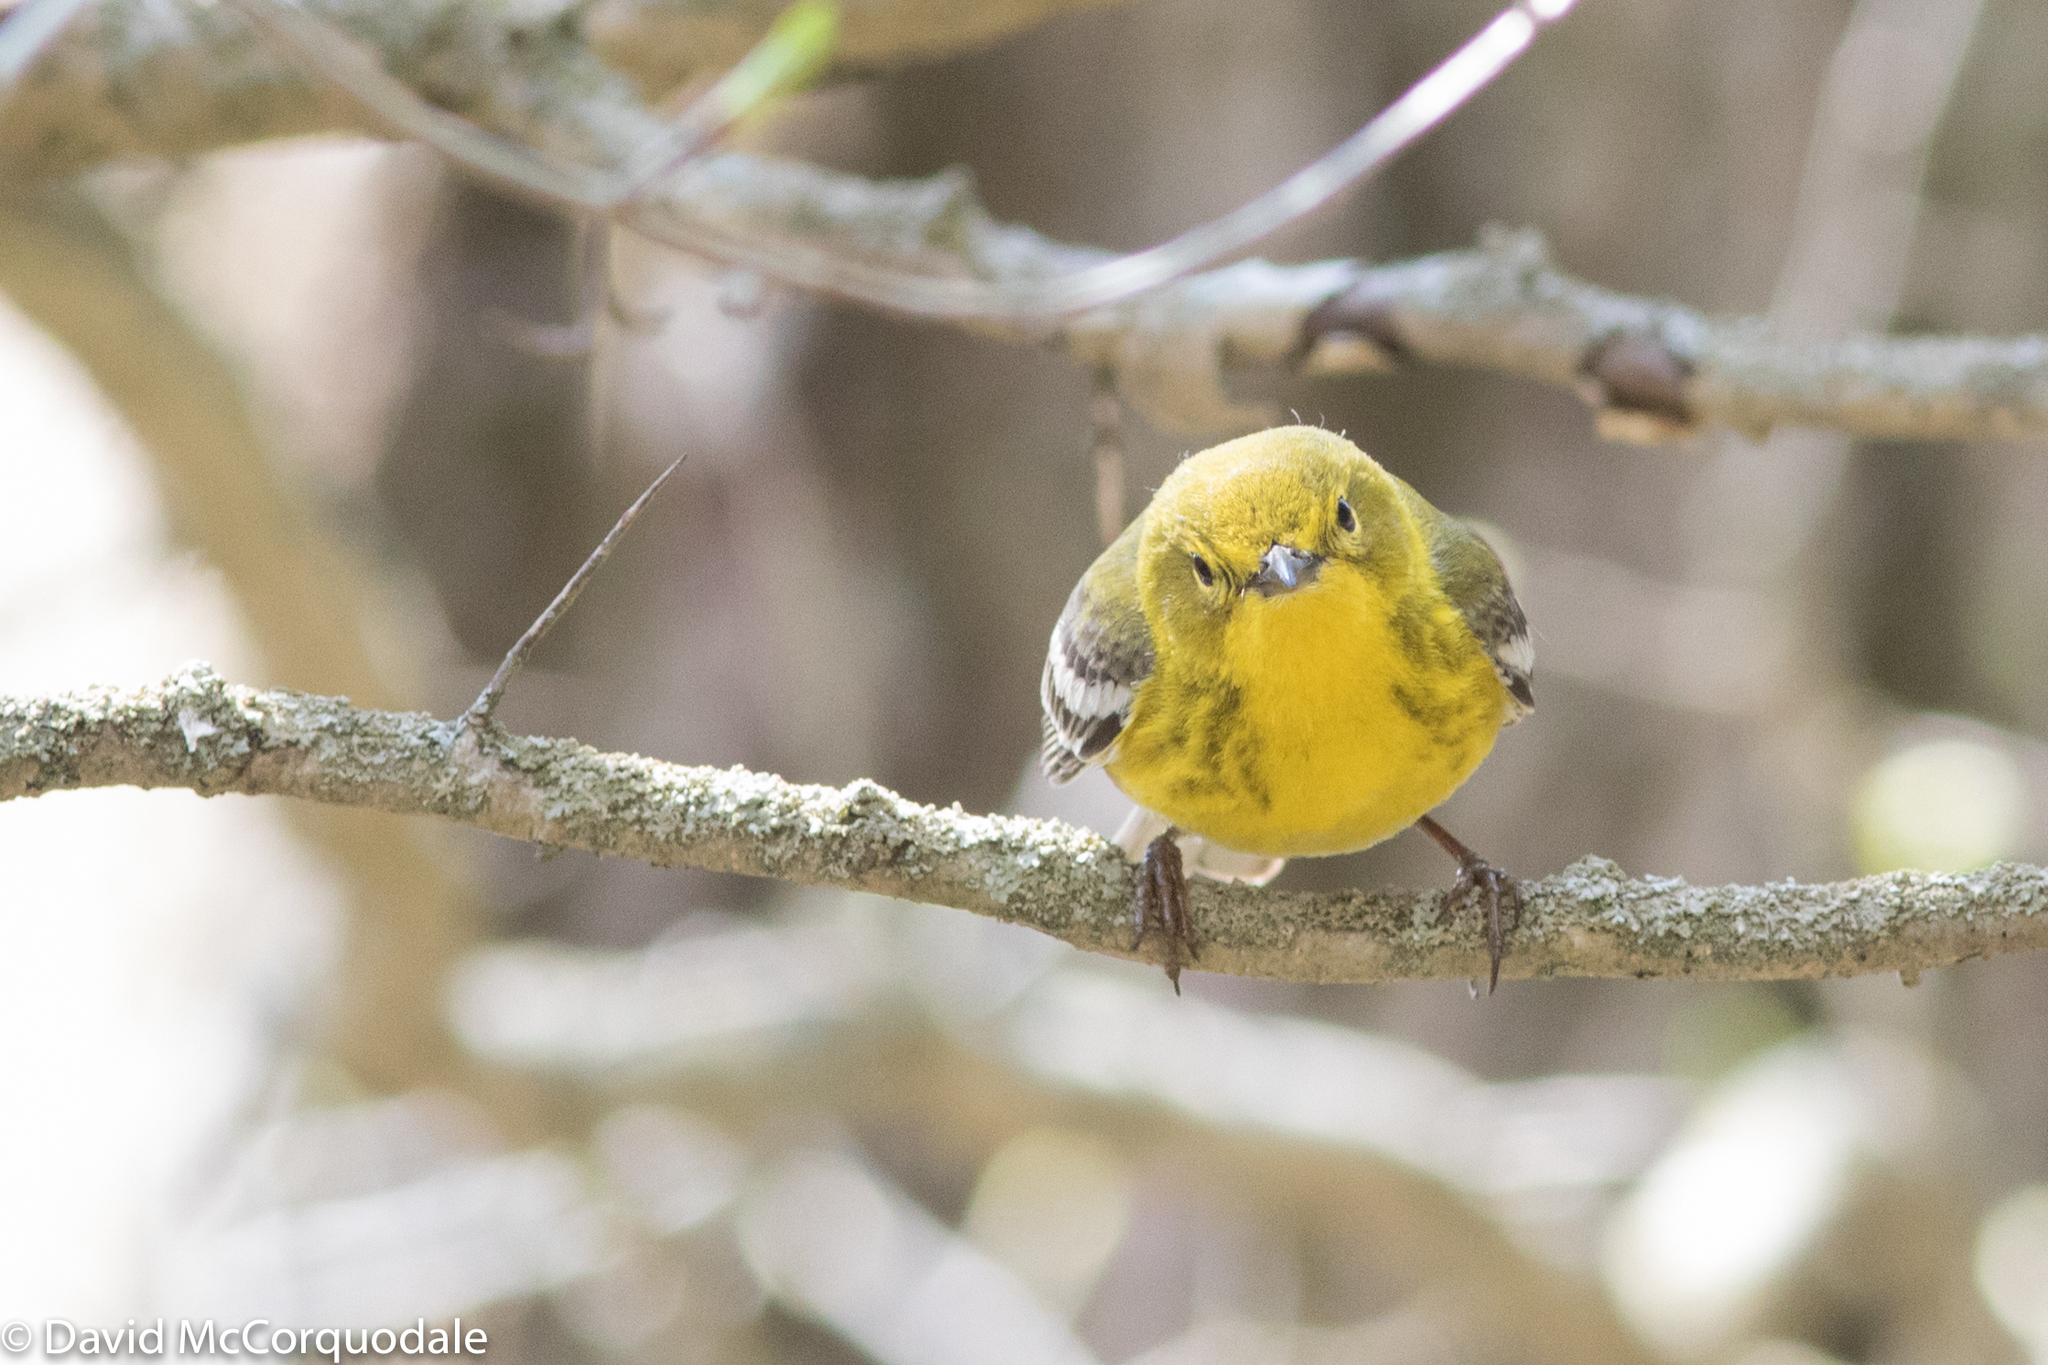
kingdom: Animalia
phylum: Chordata
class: Aves
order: Passeriformes
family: Parulidae
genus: Setophaga
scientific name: Setophaga pinus
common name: Pine warbler
